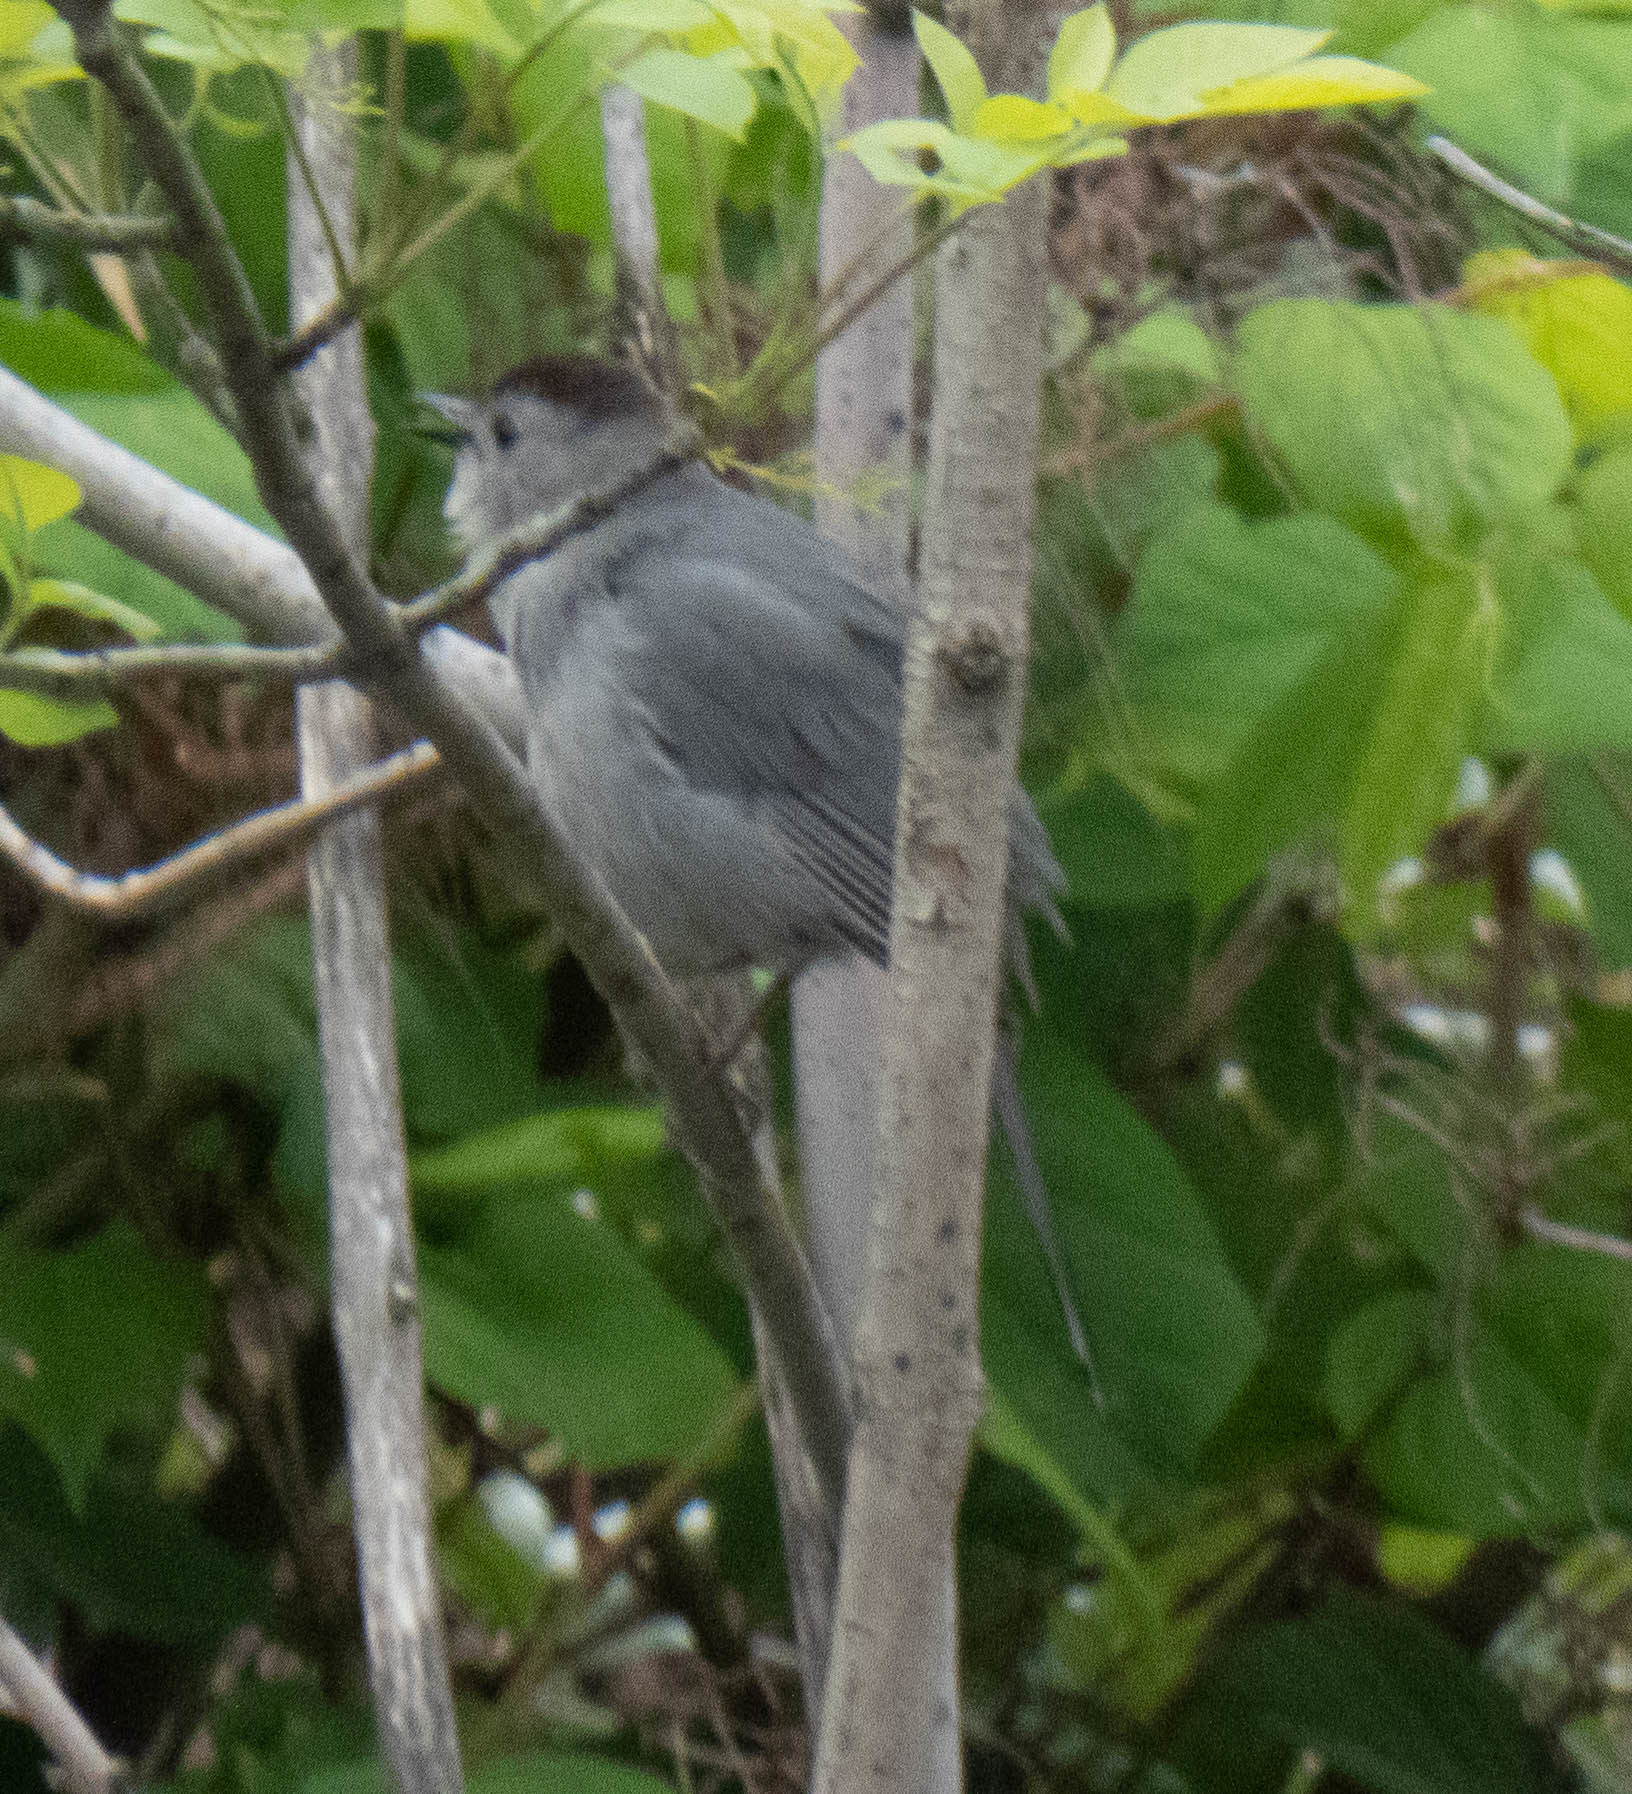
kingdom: Animalia
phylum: Chordata
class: Aves
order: Passeriformes
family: Mimidae
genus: Dumetella
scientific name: Dumetella carolinensis
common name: Gray catbird
